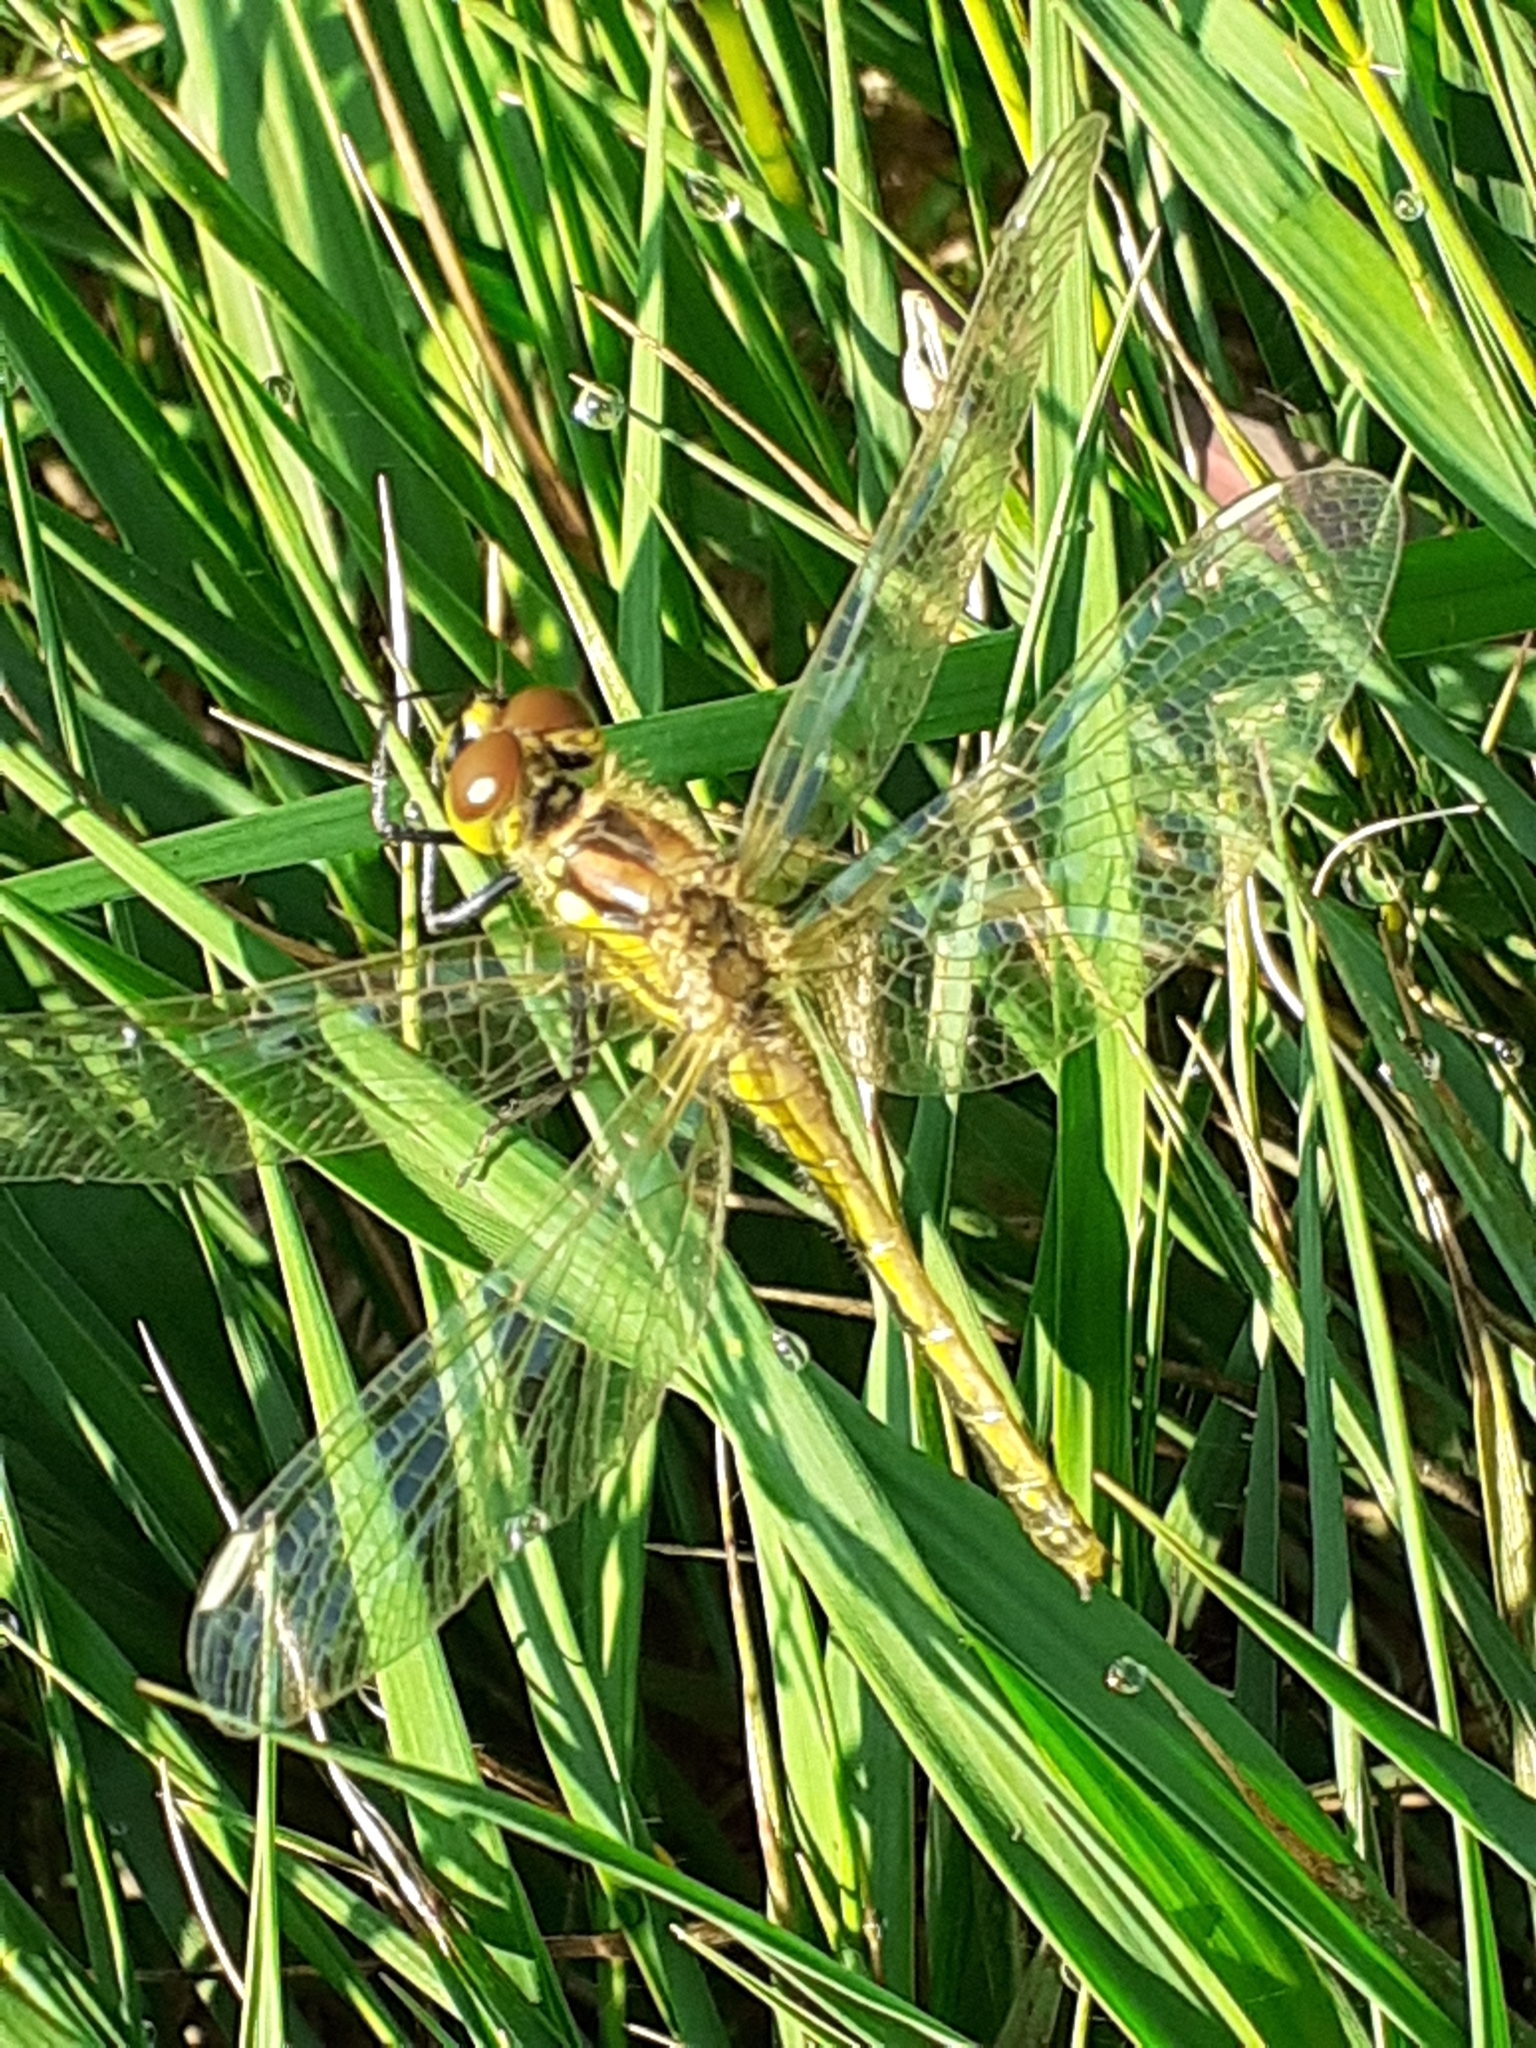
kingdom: Animalia
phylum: Arthropoda
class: Insecta
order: Odonata
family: Libellulidae
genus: Sympetrum
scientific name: Sympetrum danae
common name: Black darter
